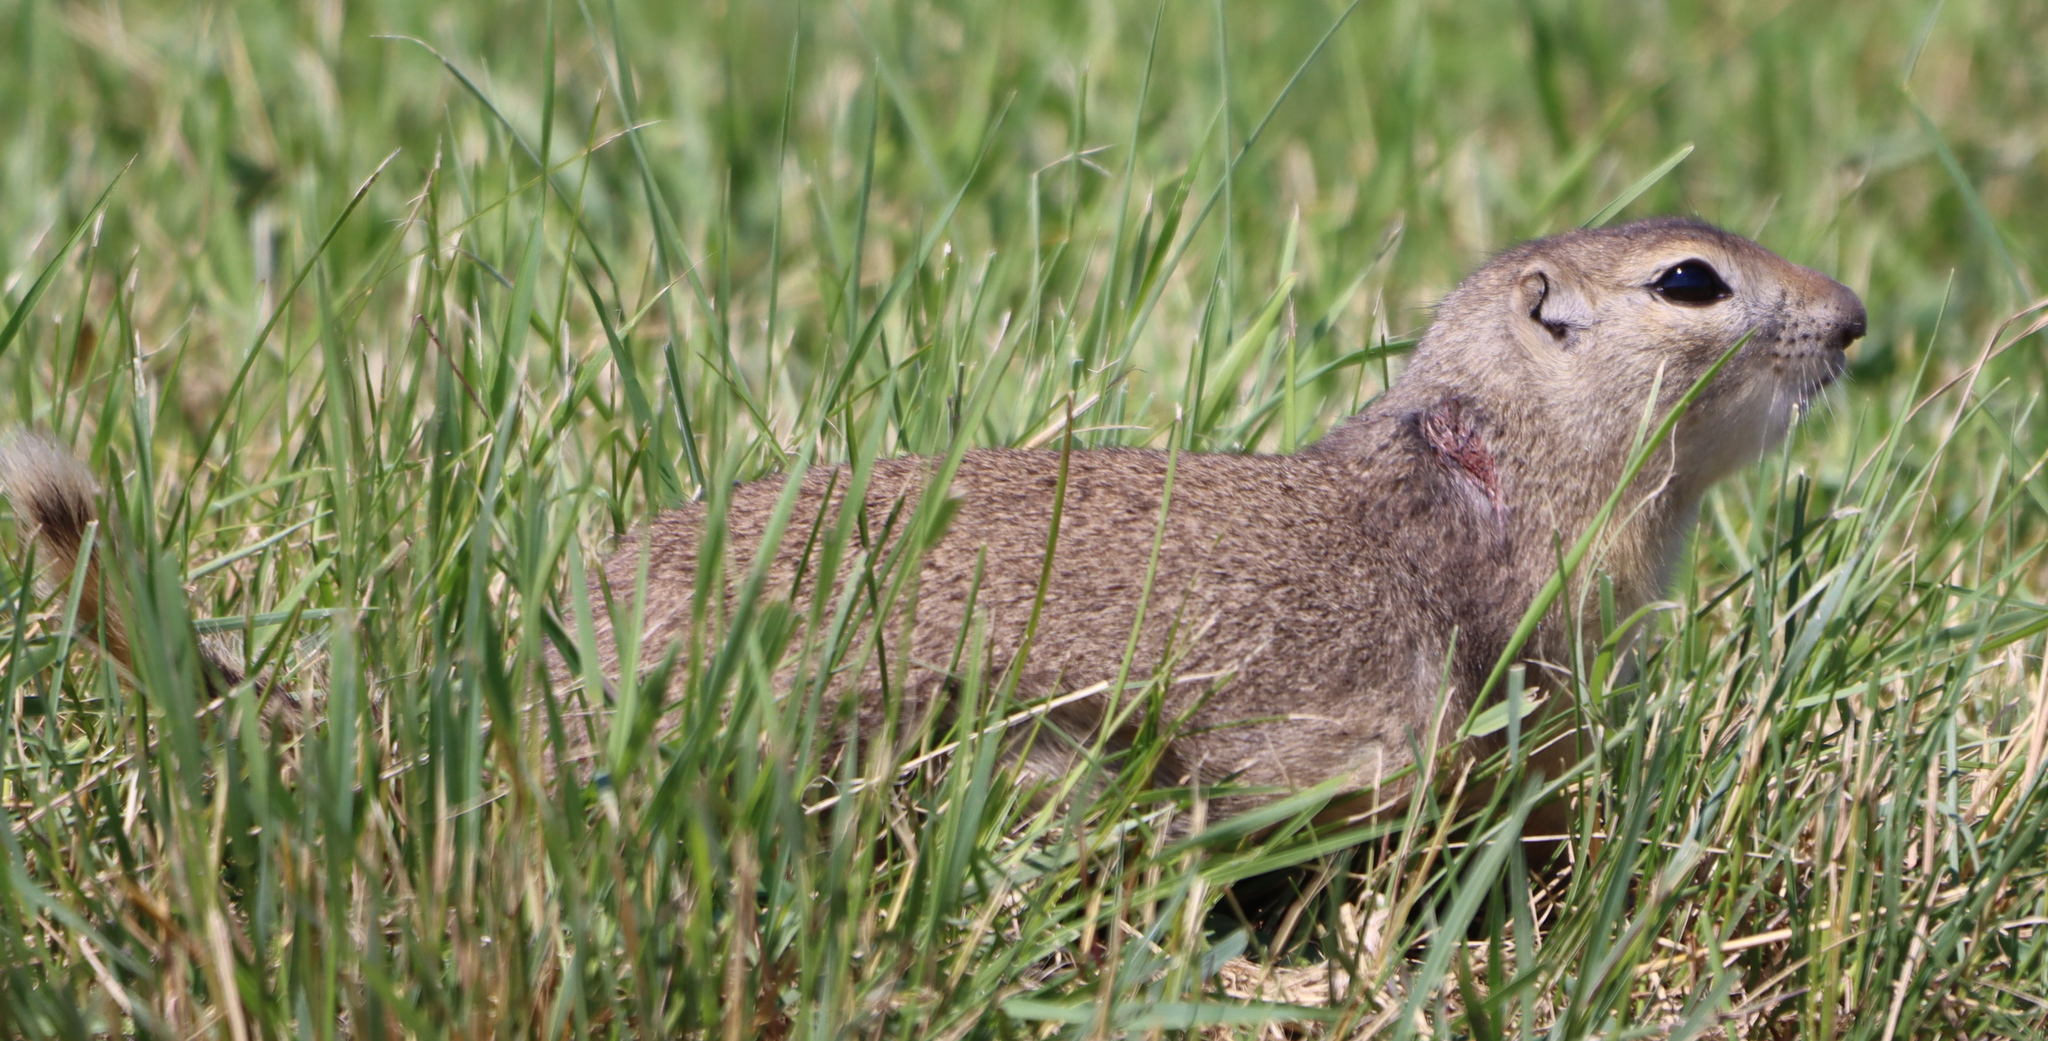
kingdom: Animalia
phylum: Chordata
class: Mammalia
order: Rodentia
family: Sciuridae
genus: Urocitellus
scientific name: Urocitellus richardsonii
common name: Richardson's ground squirrel
